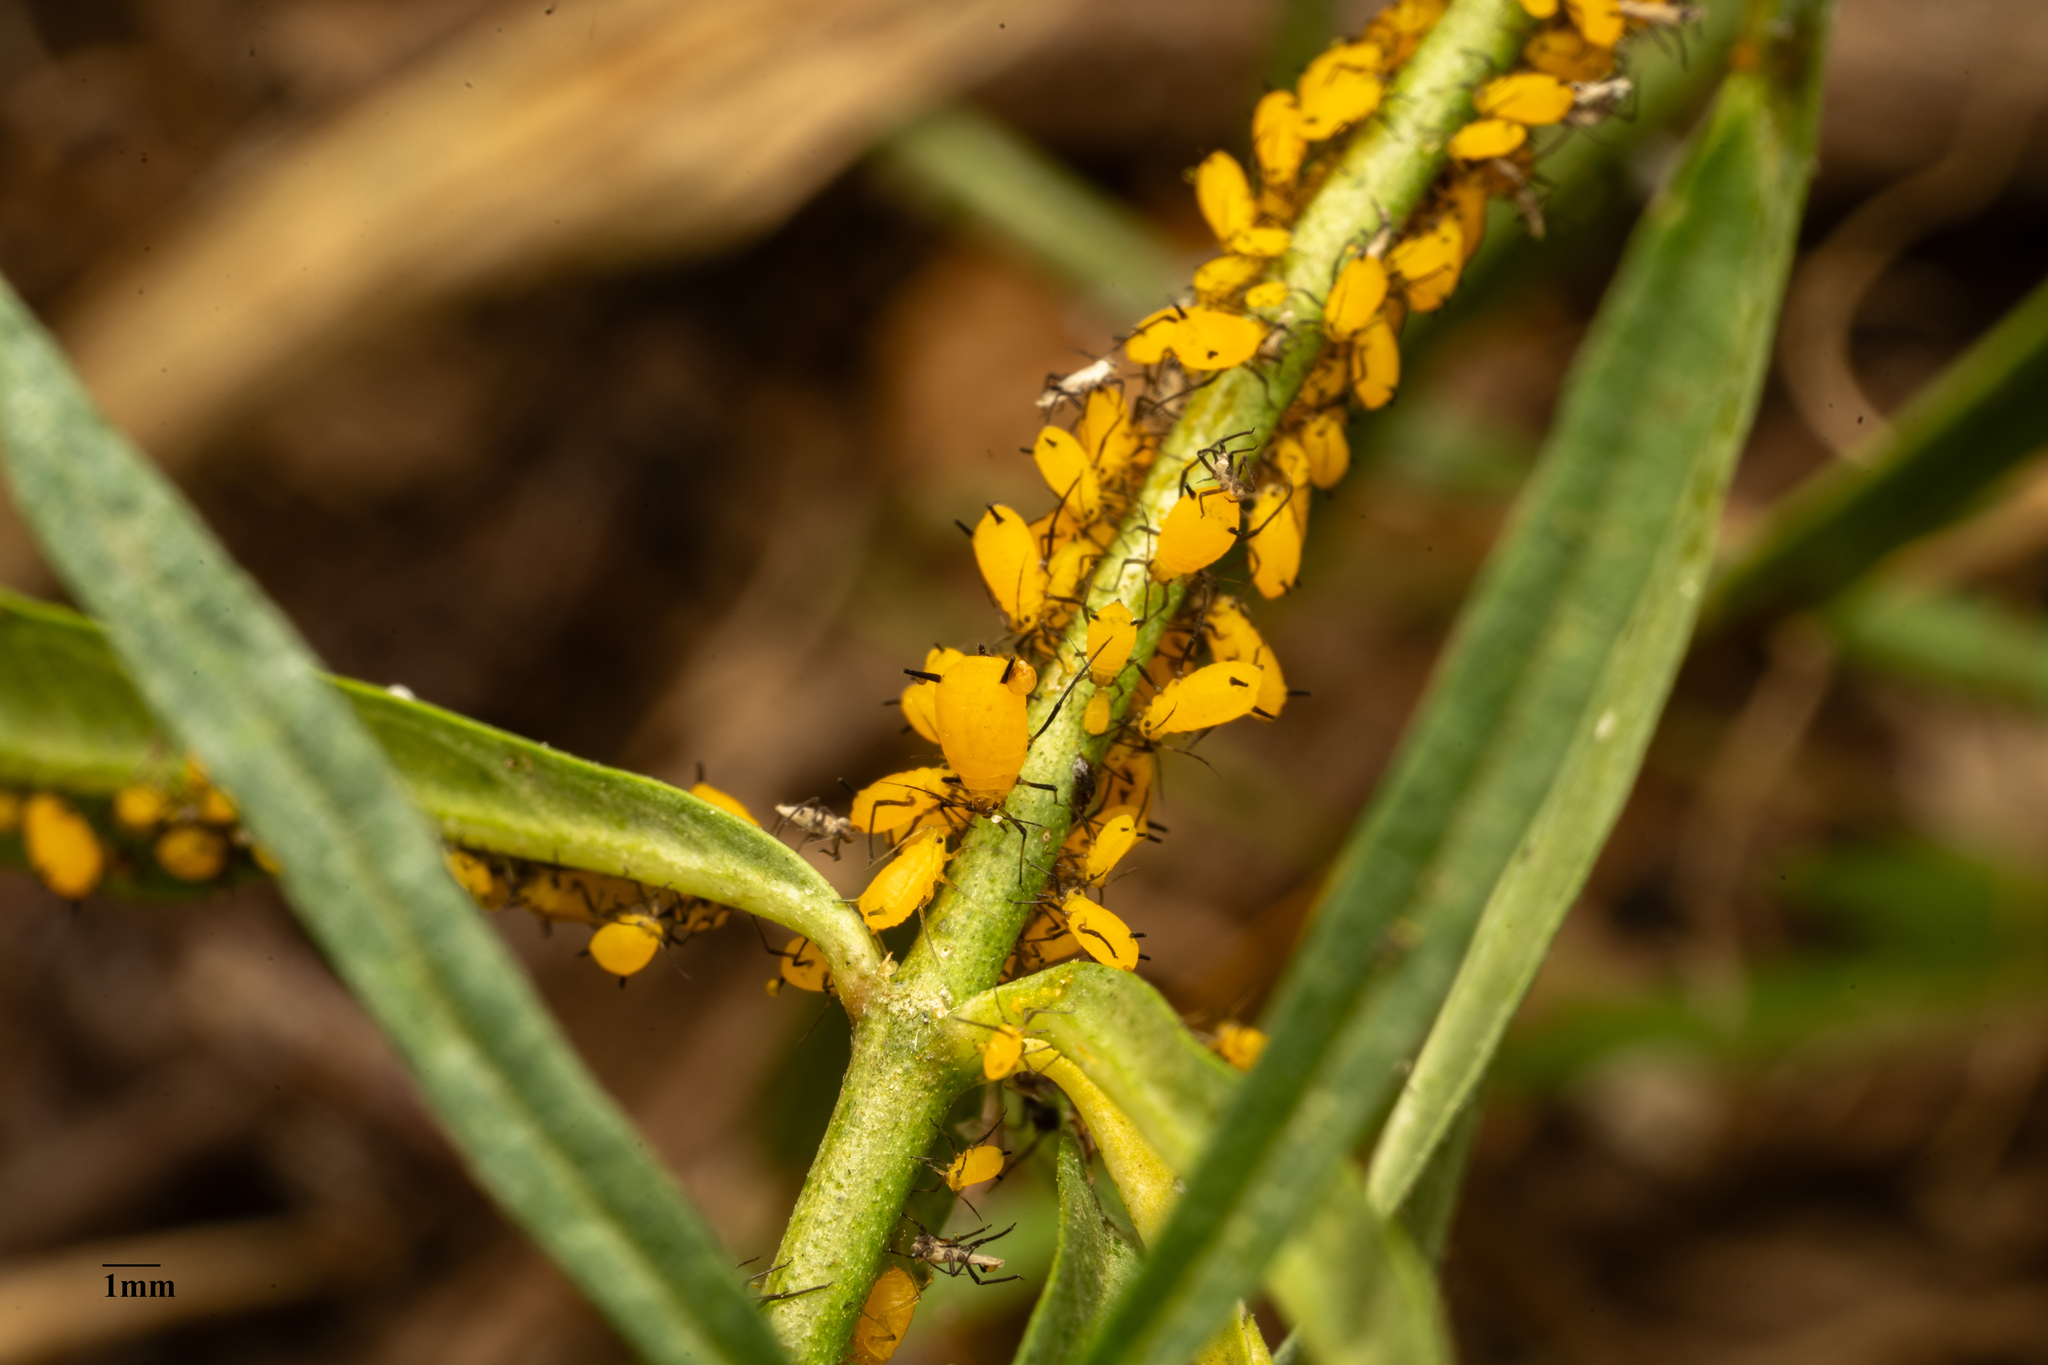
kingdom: Animalia
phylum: Arthropoda
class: Insecta
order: Hemiptera
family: Aphididae
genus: Aphis
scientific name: Aphis nerii
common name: Oleander aphid
